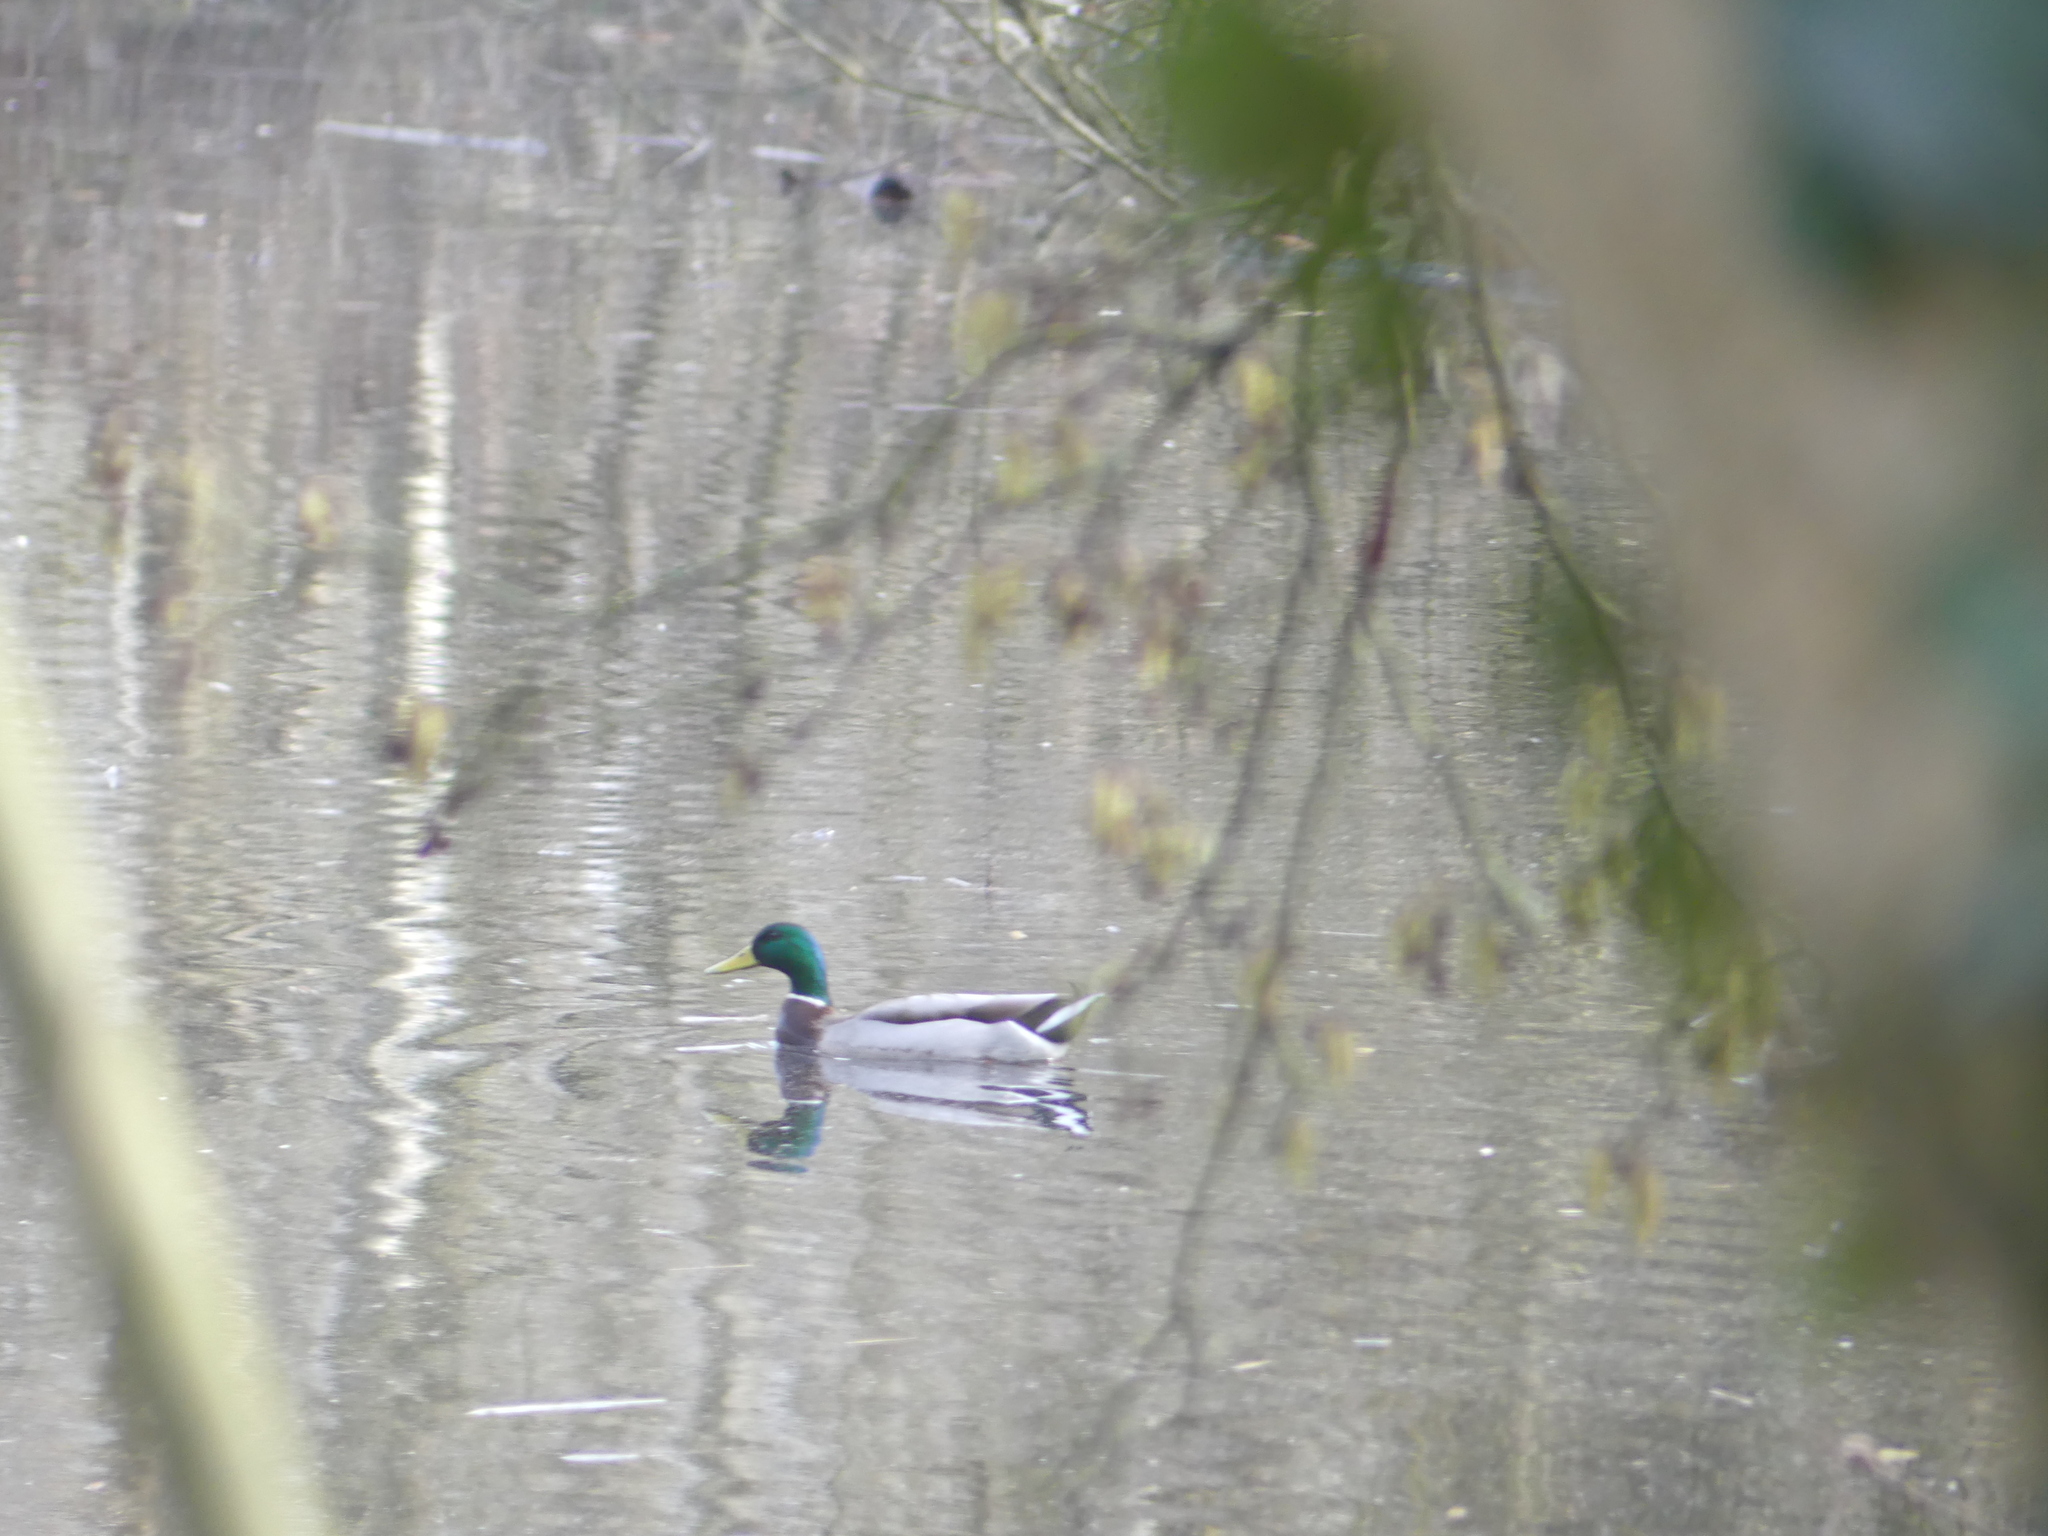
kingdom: Animalia
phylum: Chordata
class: Aves
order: Anseriformes
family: Anatidae
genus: Anas
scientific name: Anas platyrhynchos
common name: Mallard
